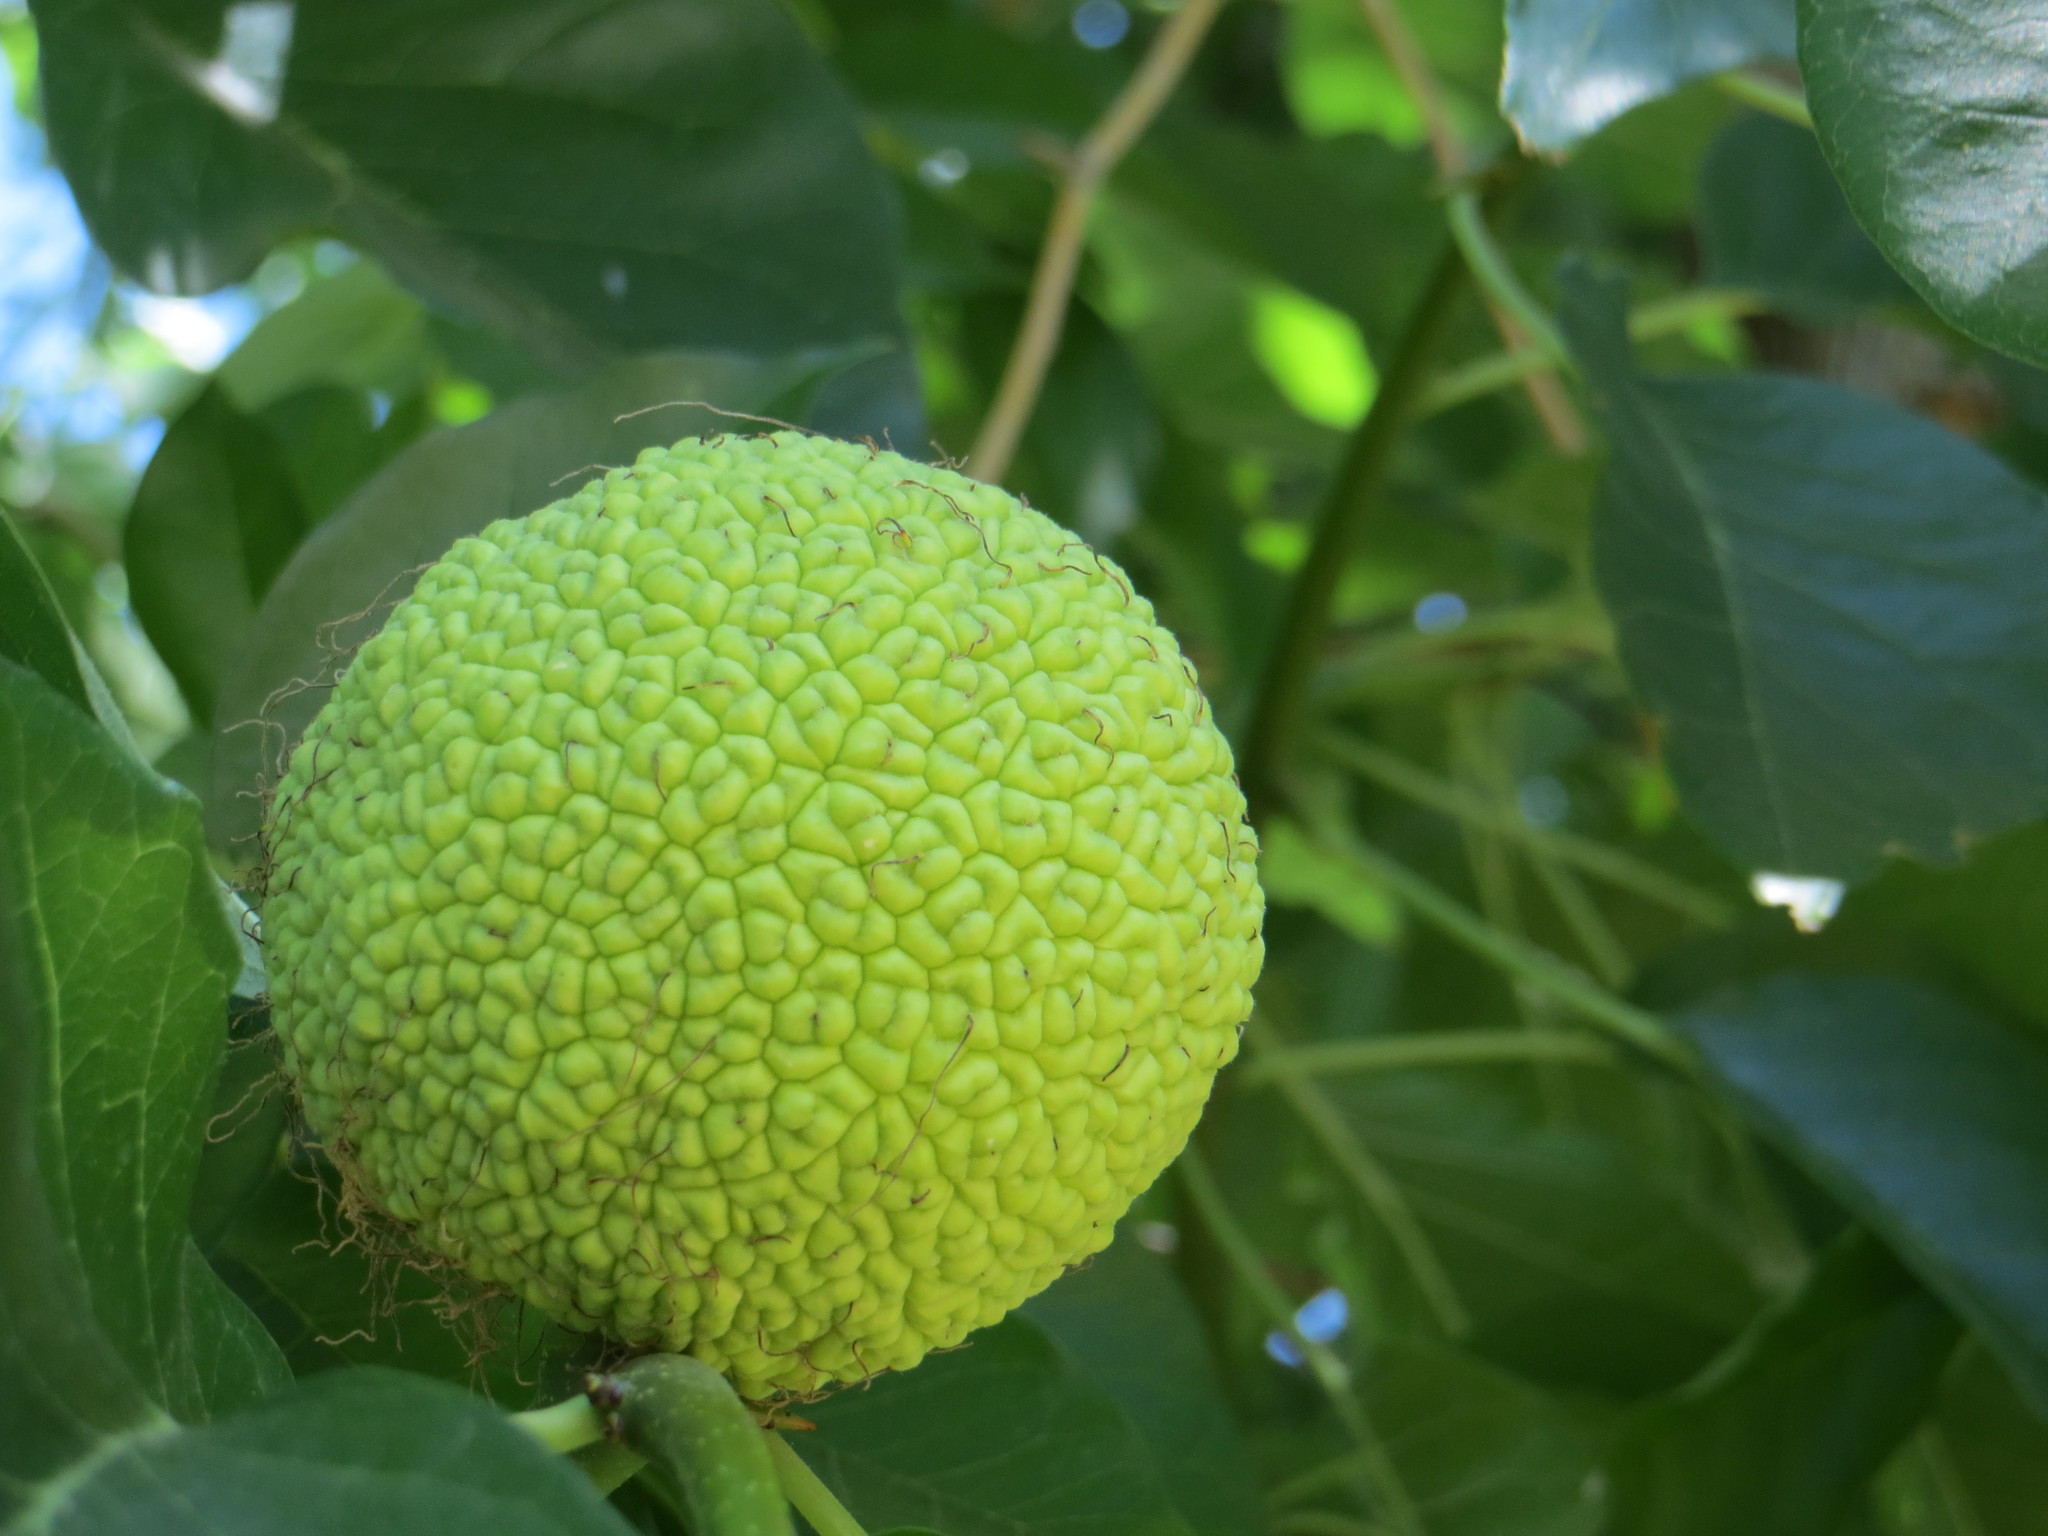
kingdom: Plantae
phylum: Tracheophyta
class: Magnoliopsida
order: Rosales
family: Moraceae
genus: Maclura
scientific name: Maclura pomifera
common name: Osage-orange
